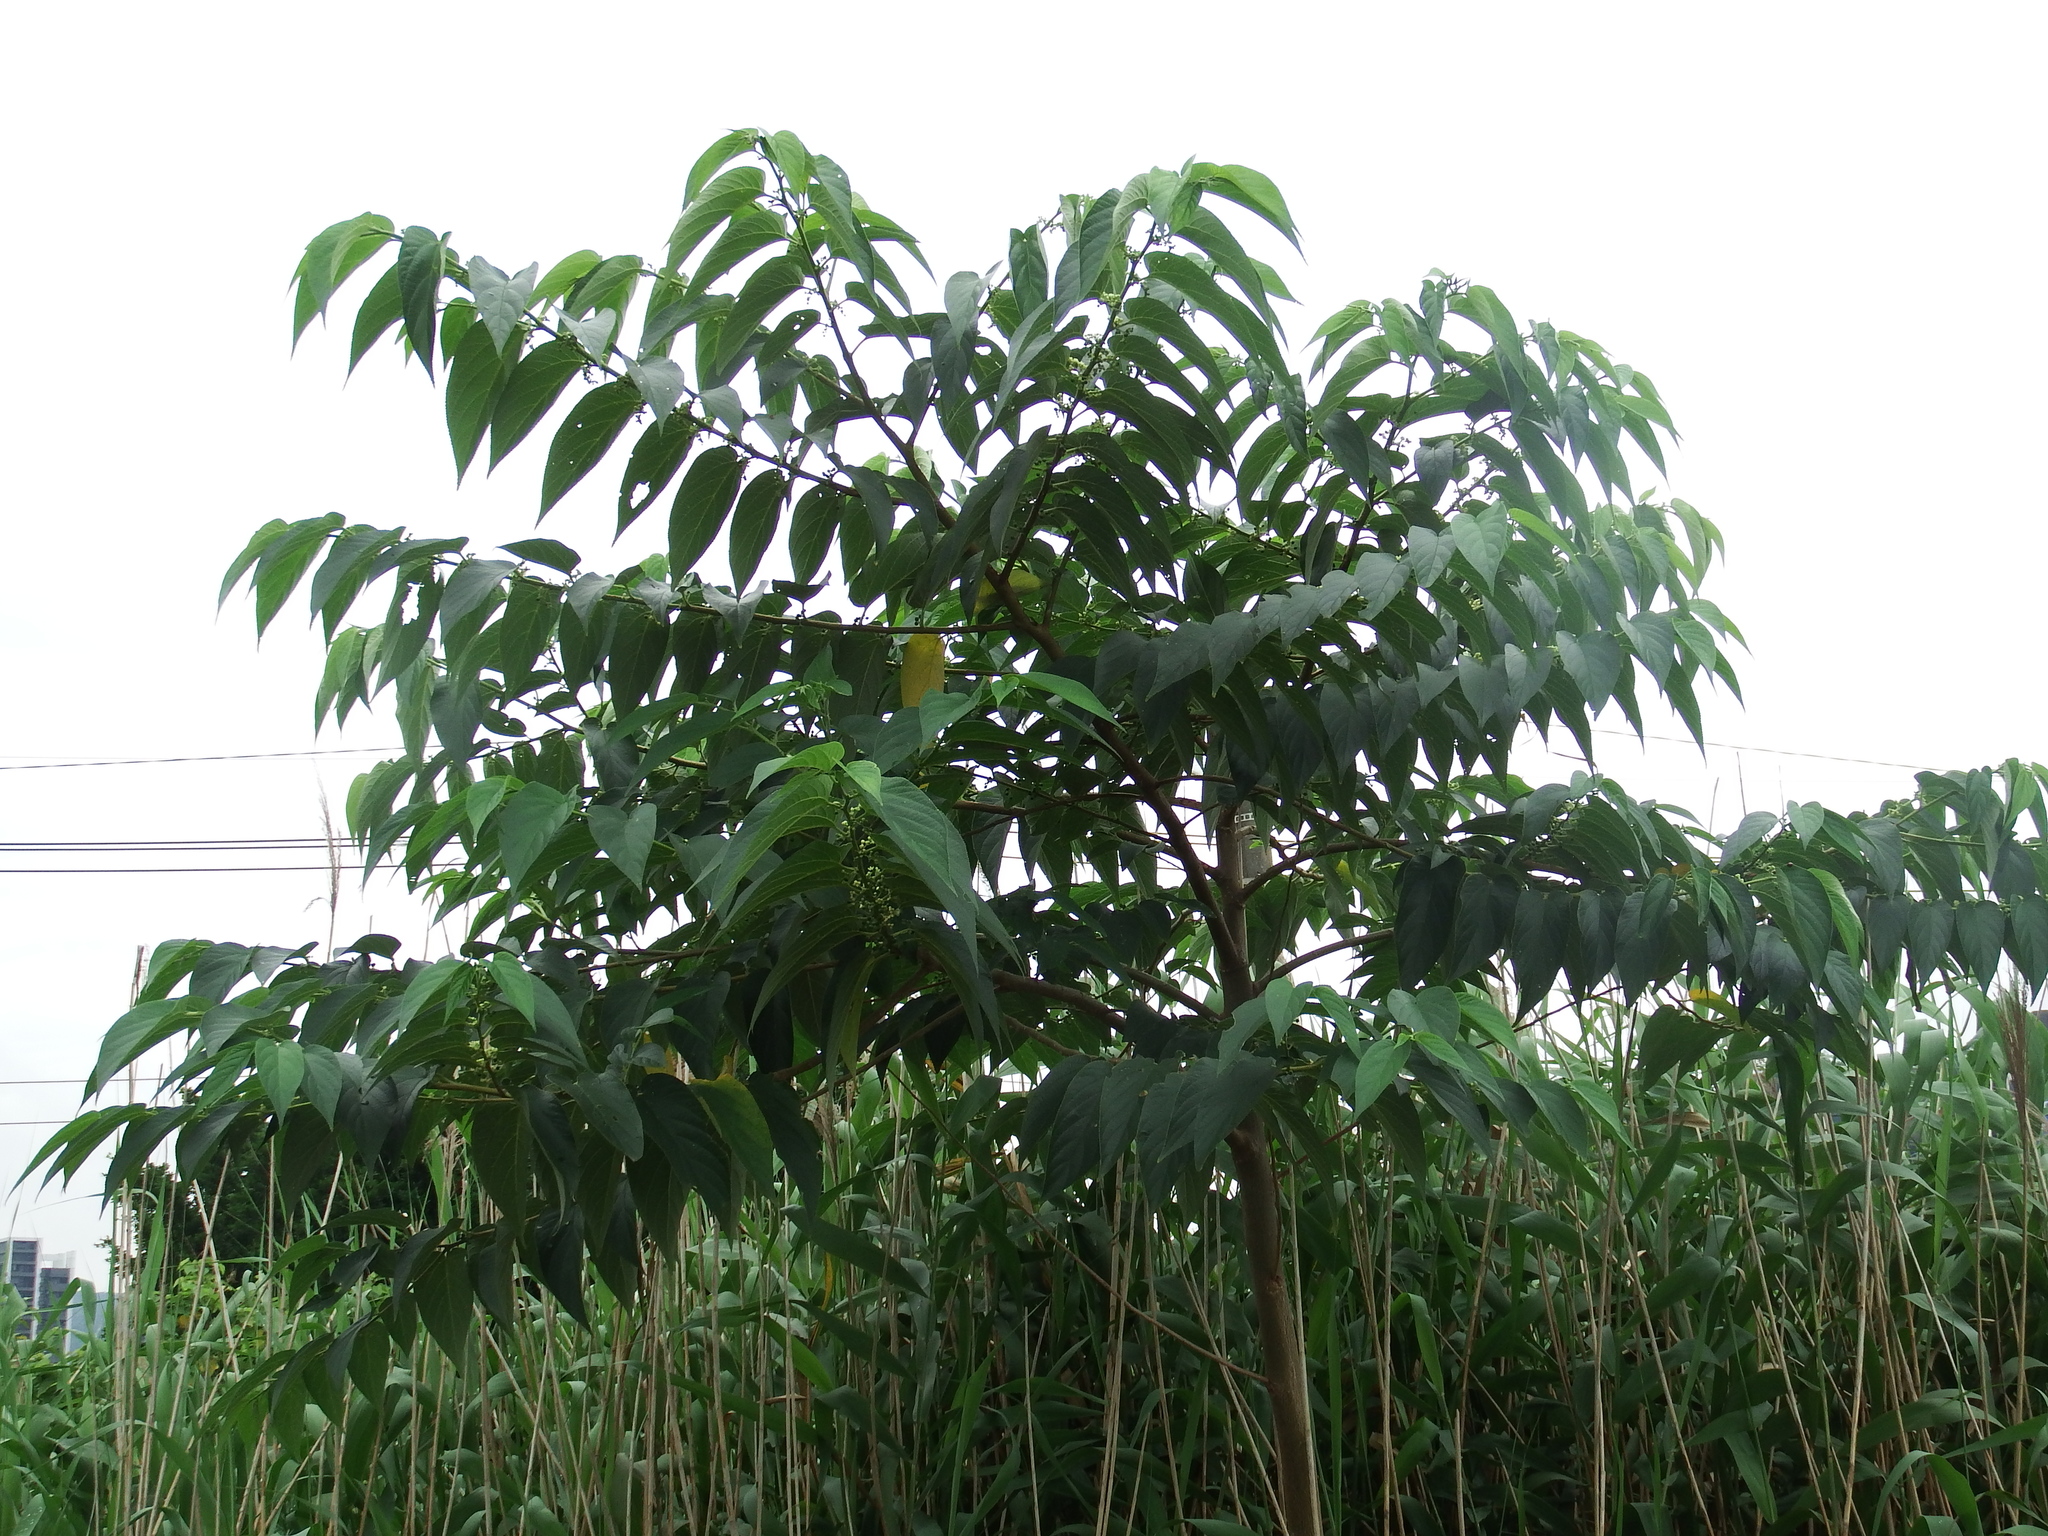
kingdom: Plantae
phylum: Tracheophyta
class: Magnoliopsida
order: Rosales
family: Cannabaceae
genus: Trema
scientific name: Trema orientale
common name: Indian charcoal tree
